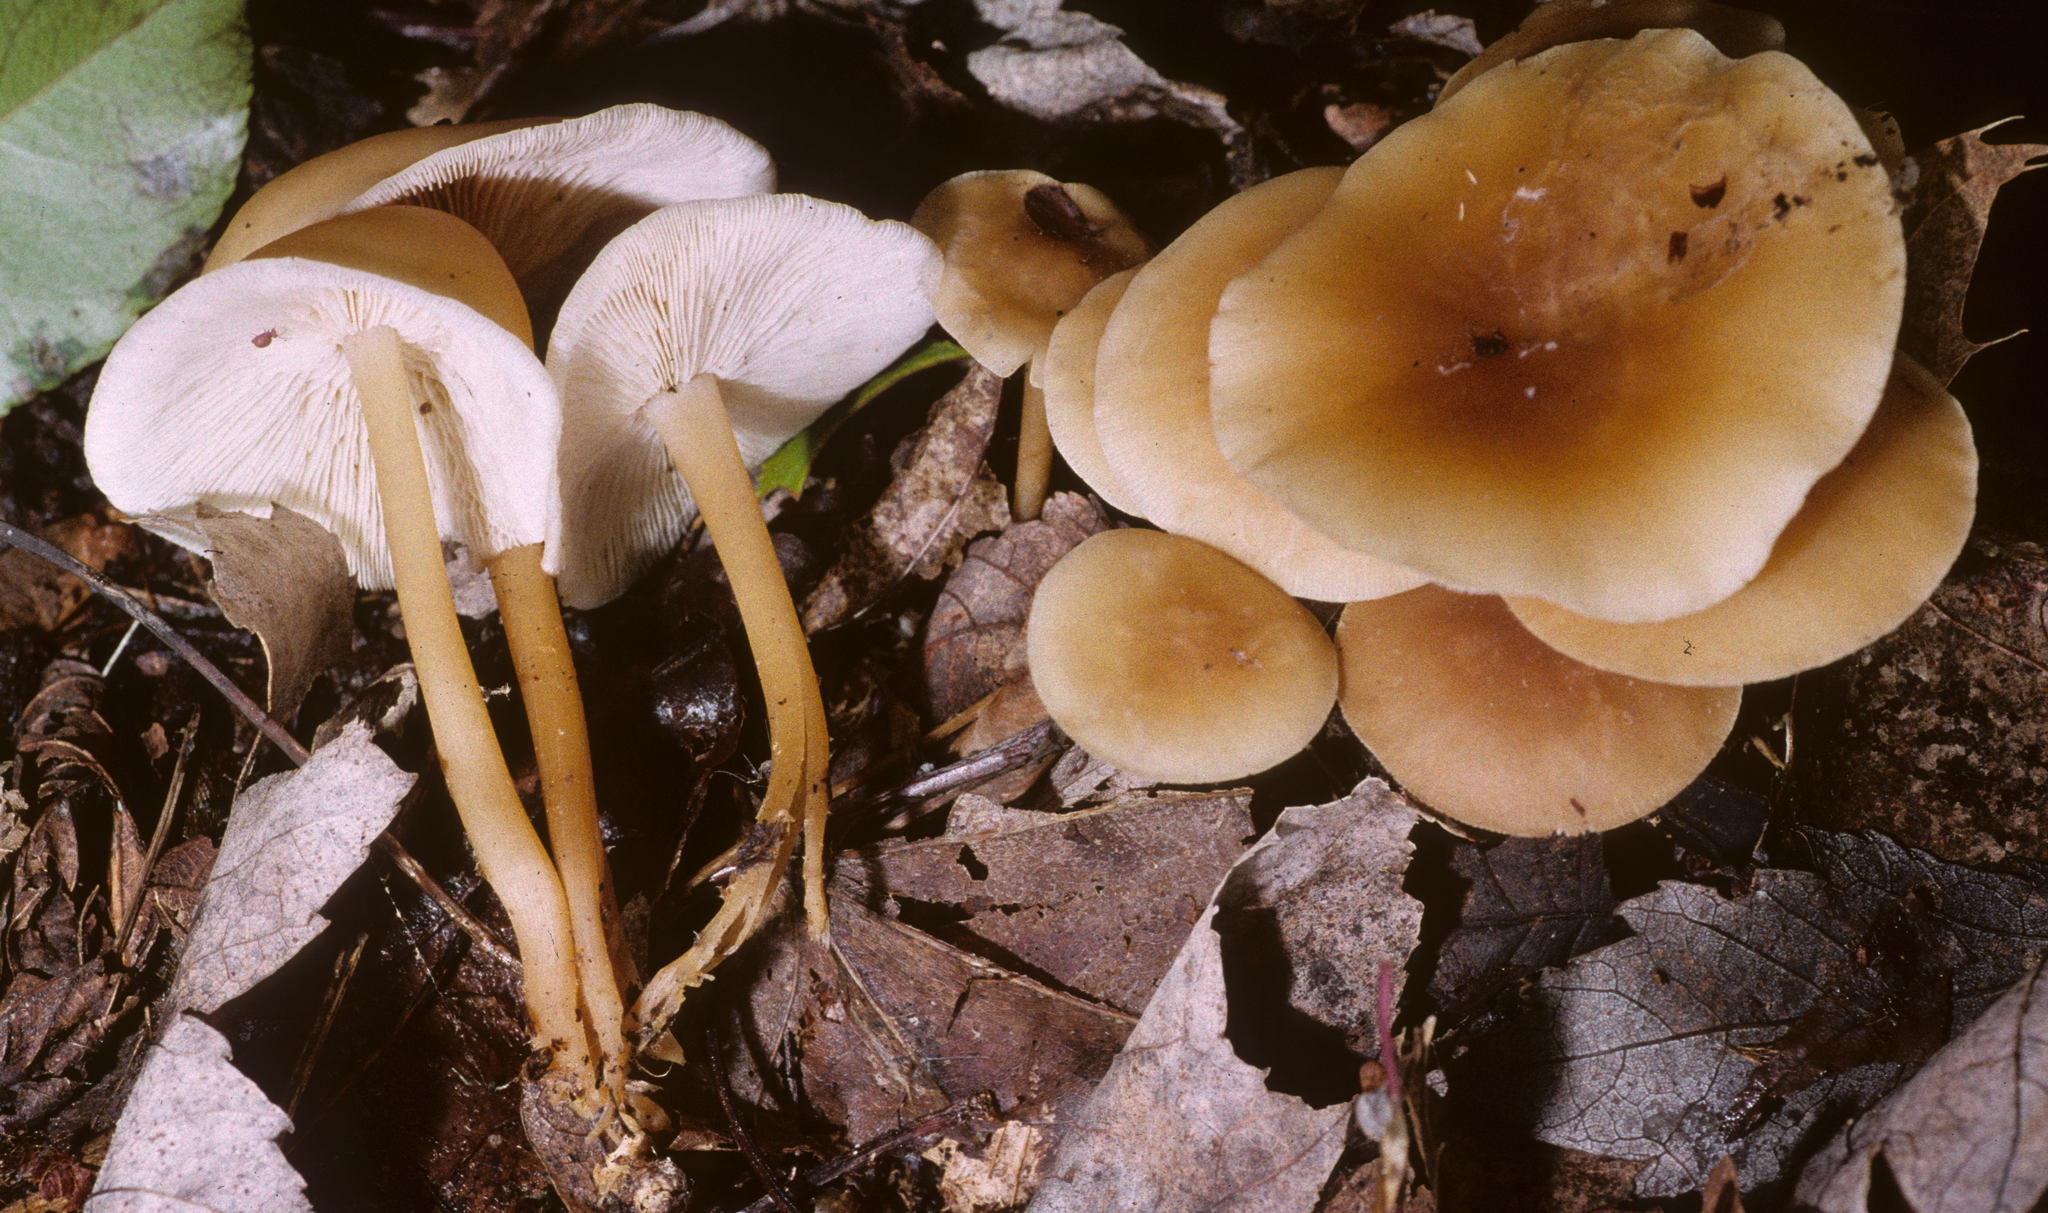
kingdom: Fungi
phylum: Basidiomycota
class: Agaricomycetes
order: Agaricales
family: Omphalotaceae
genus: Gymnopus
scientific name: Gymnopus aquosus
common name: Watery toughshank
